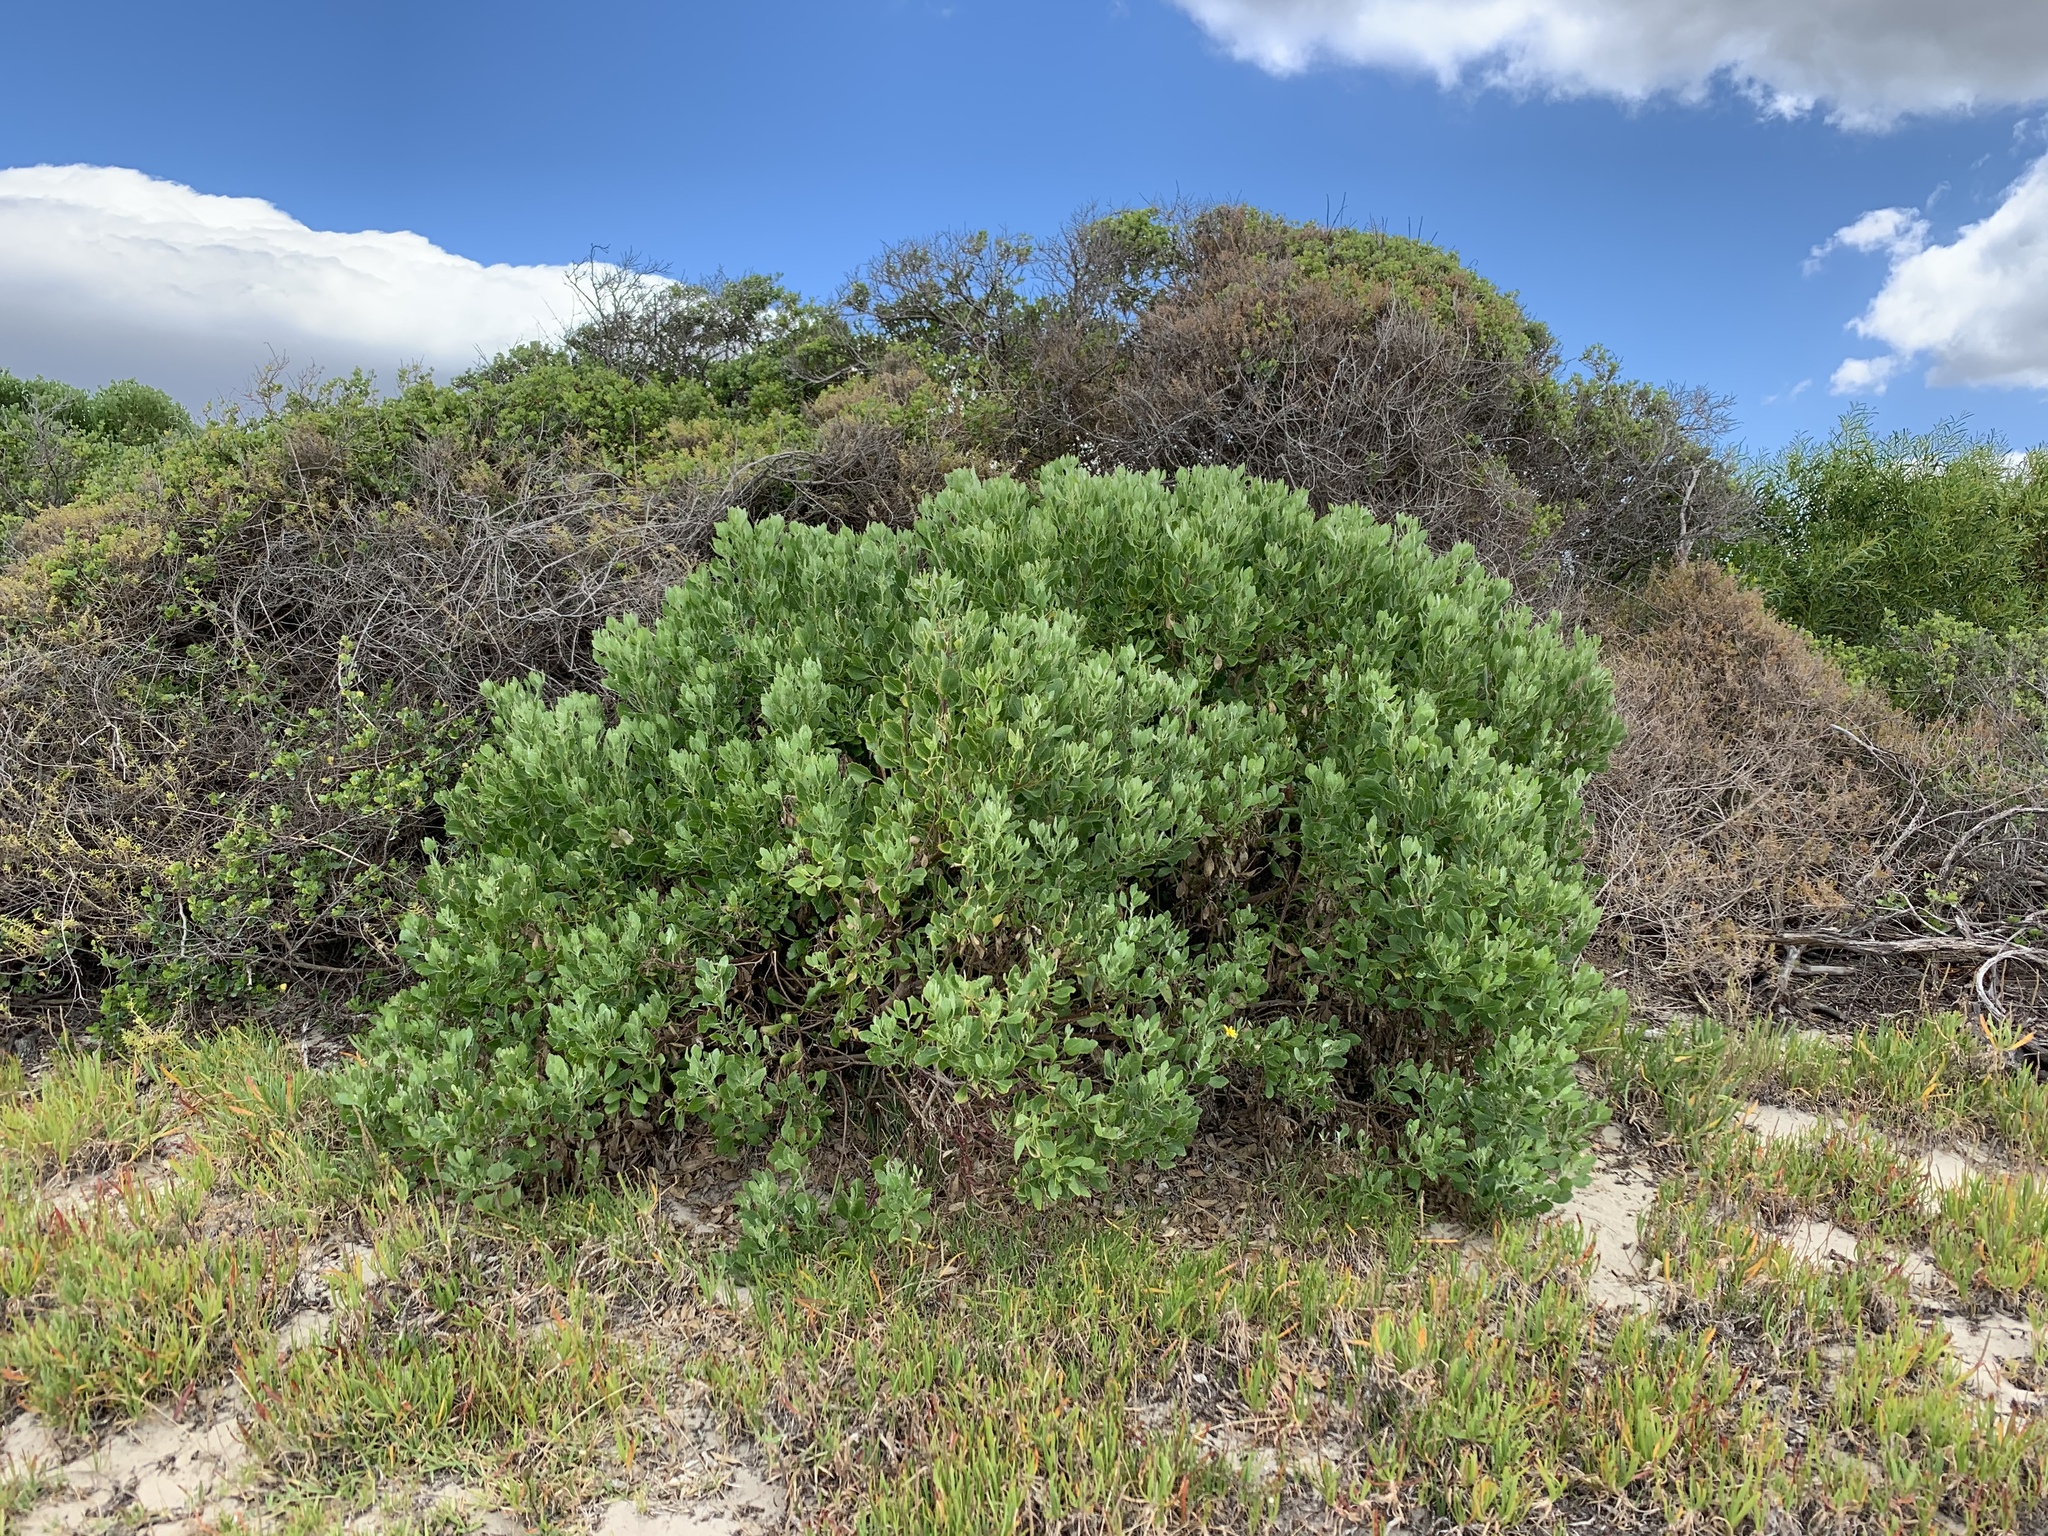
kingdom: Plantae
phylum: Tracheophyta
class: Magnoliopsida
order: Asterales
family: Asteraceae
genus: Osteospermum
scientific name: Osteospermum moniliferum
